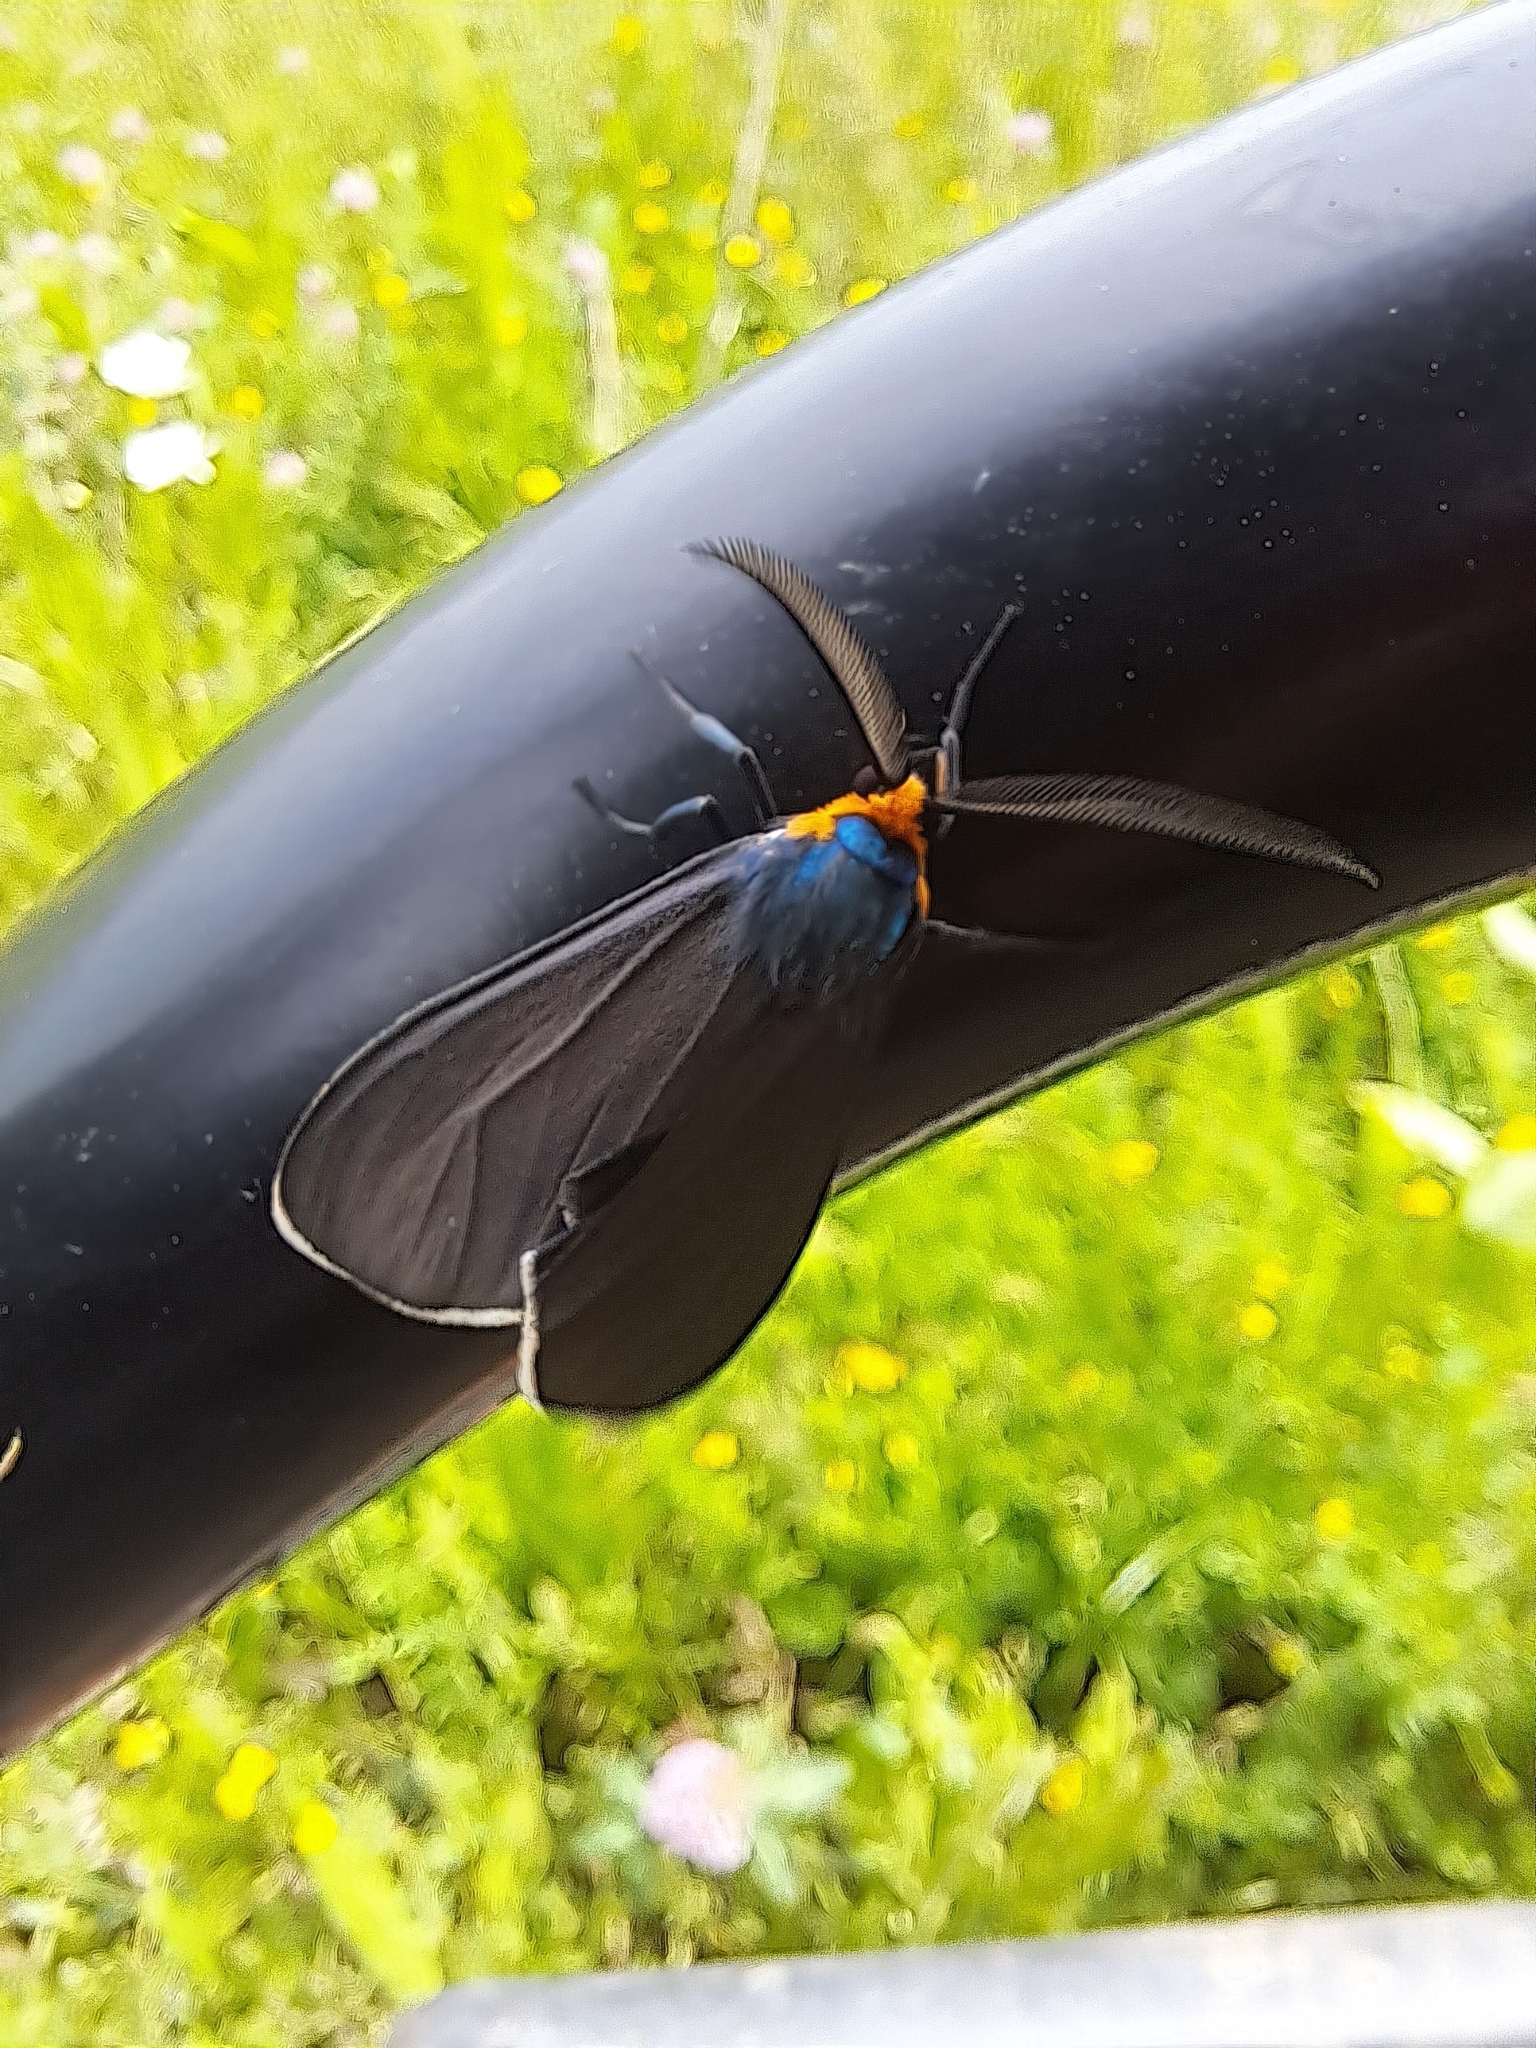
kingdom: Animalia
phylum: Arthropoda
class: Insecta
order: Lepidoptera
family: Erebidae
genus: Ctenucha
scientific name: Ctenucha virginica
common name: Virginia ctenucha moth
